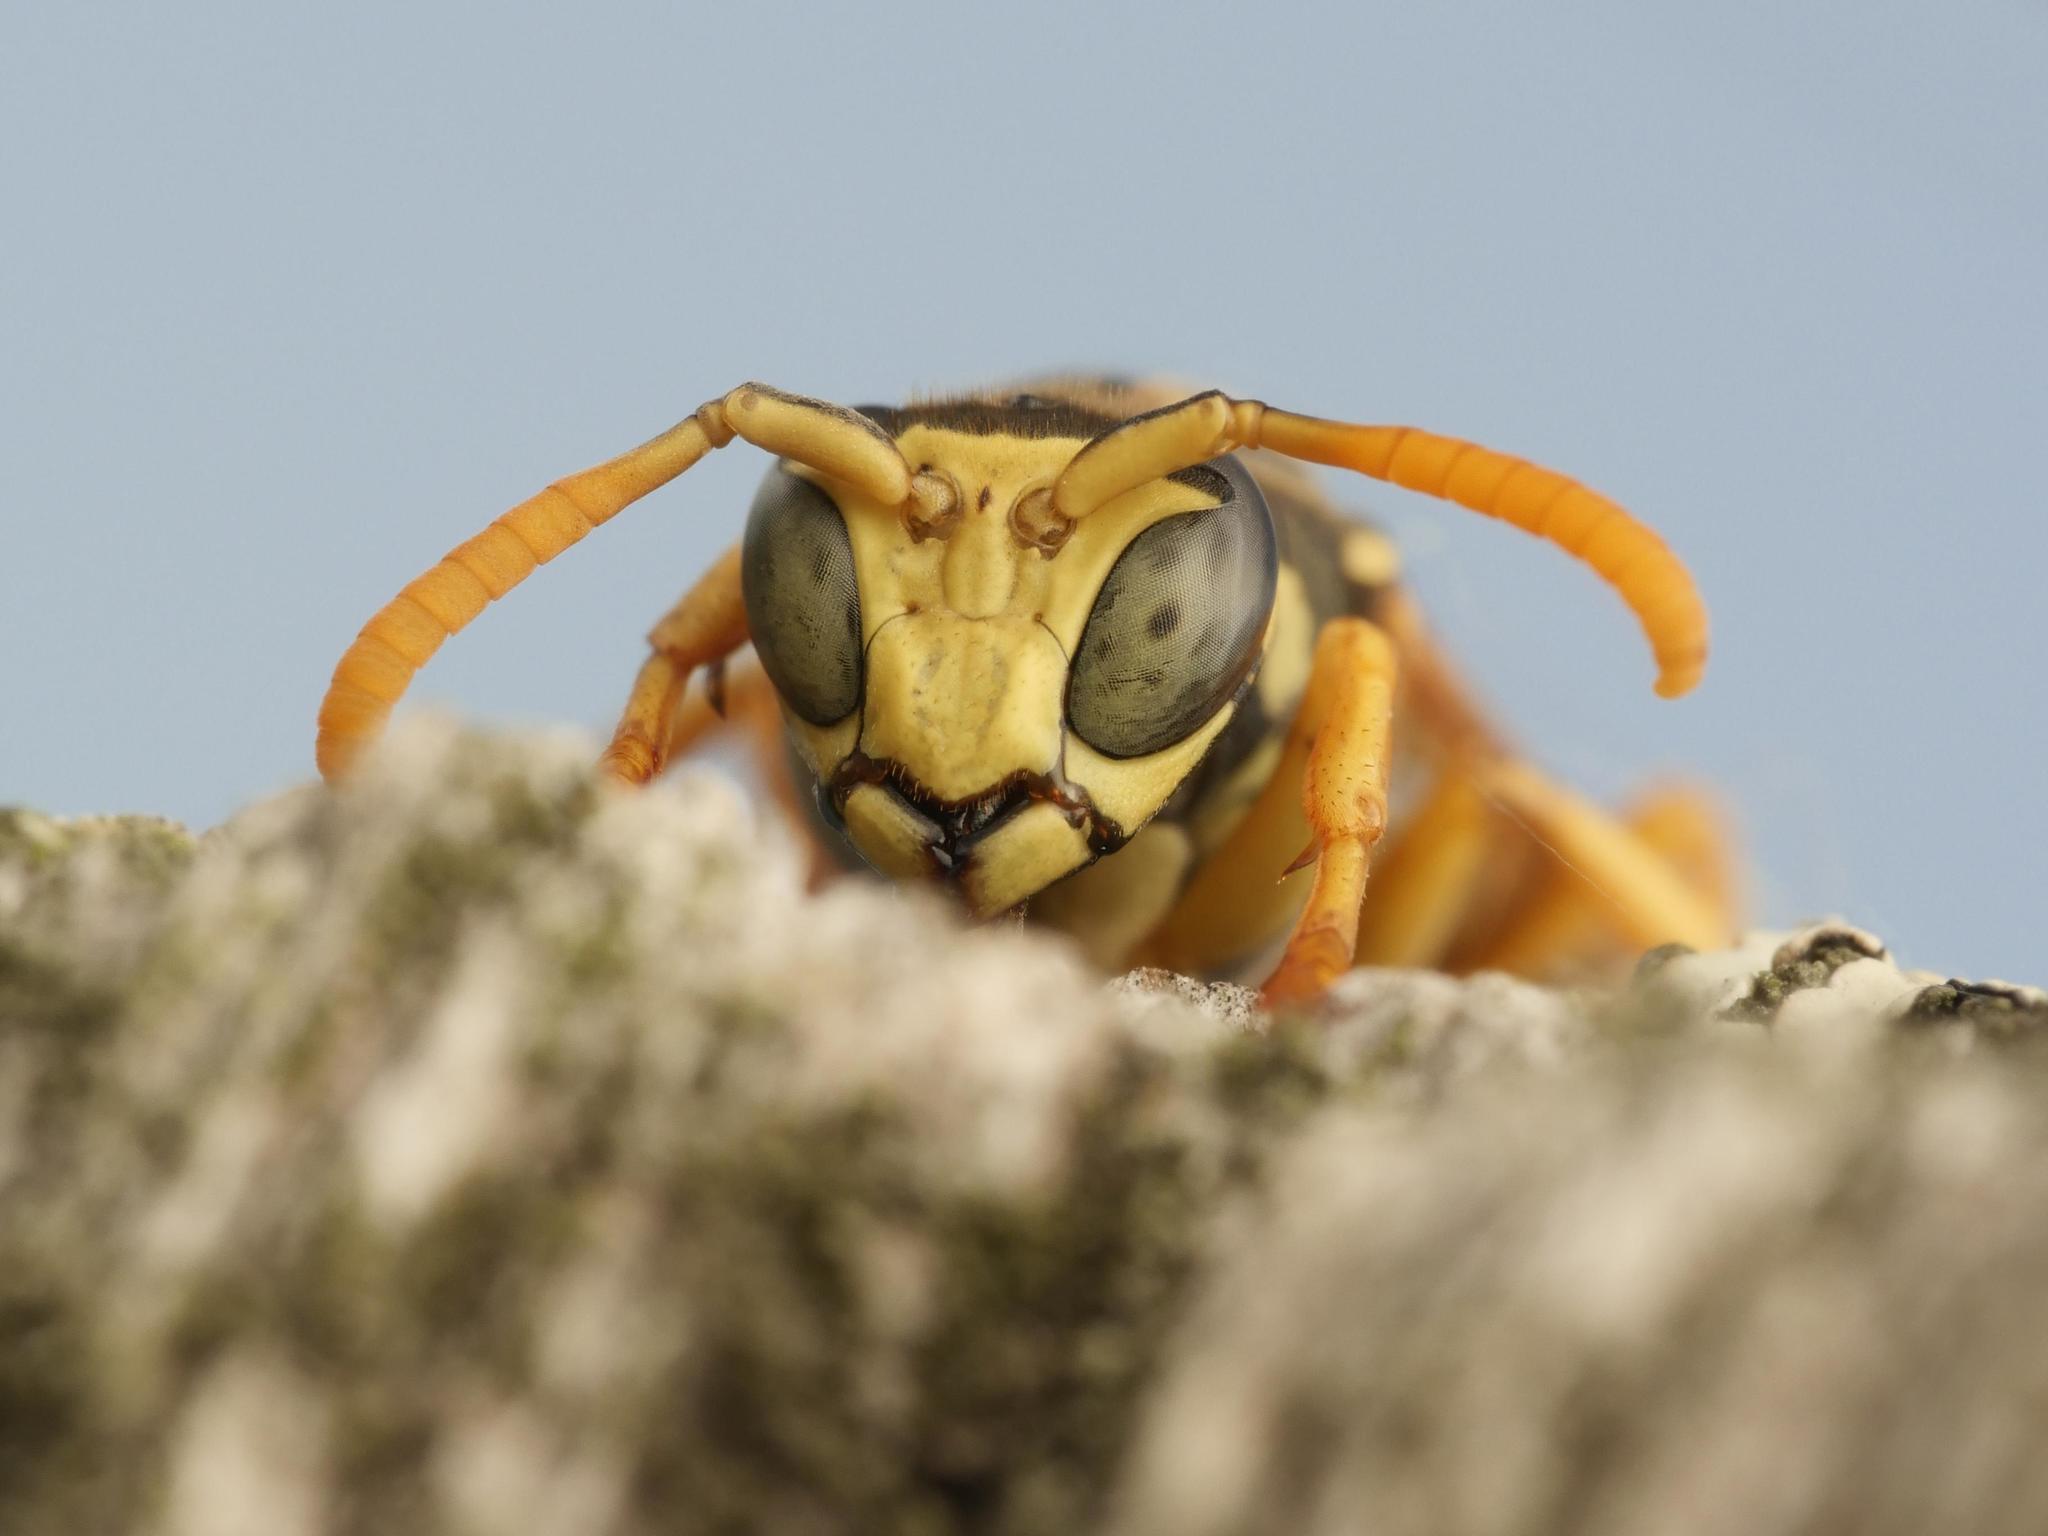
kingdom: Animalia
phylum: Arthropoda
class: Insecta
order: Hymenoptera
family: Eumenidae
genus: Polistes
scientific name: Polistes dominula
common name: Paper wasp
